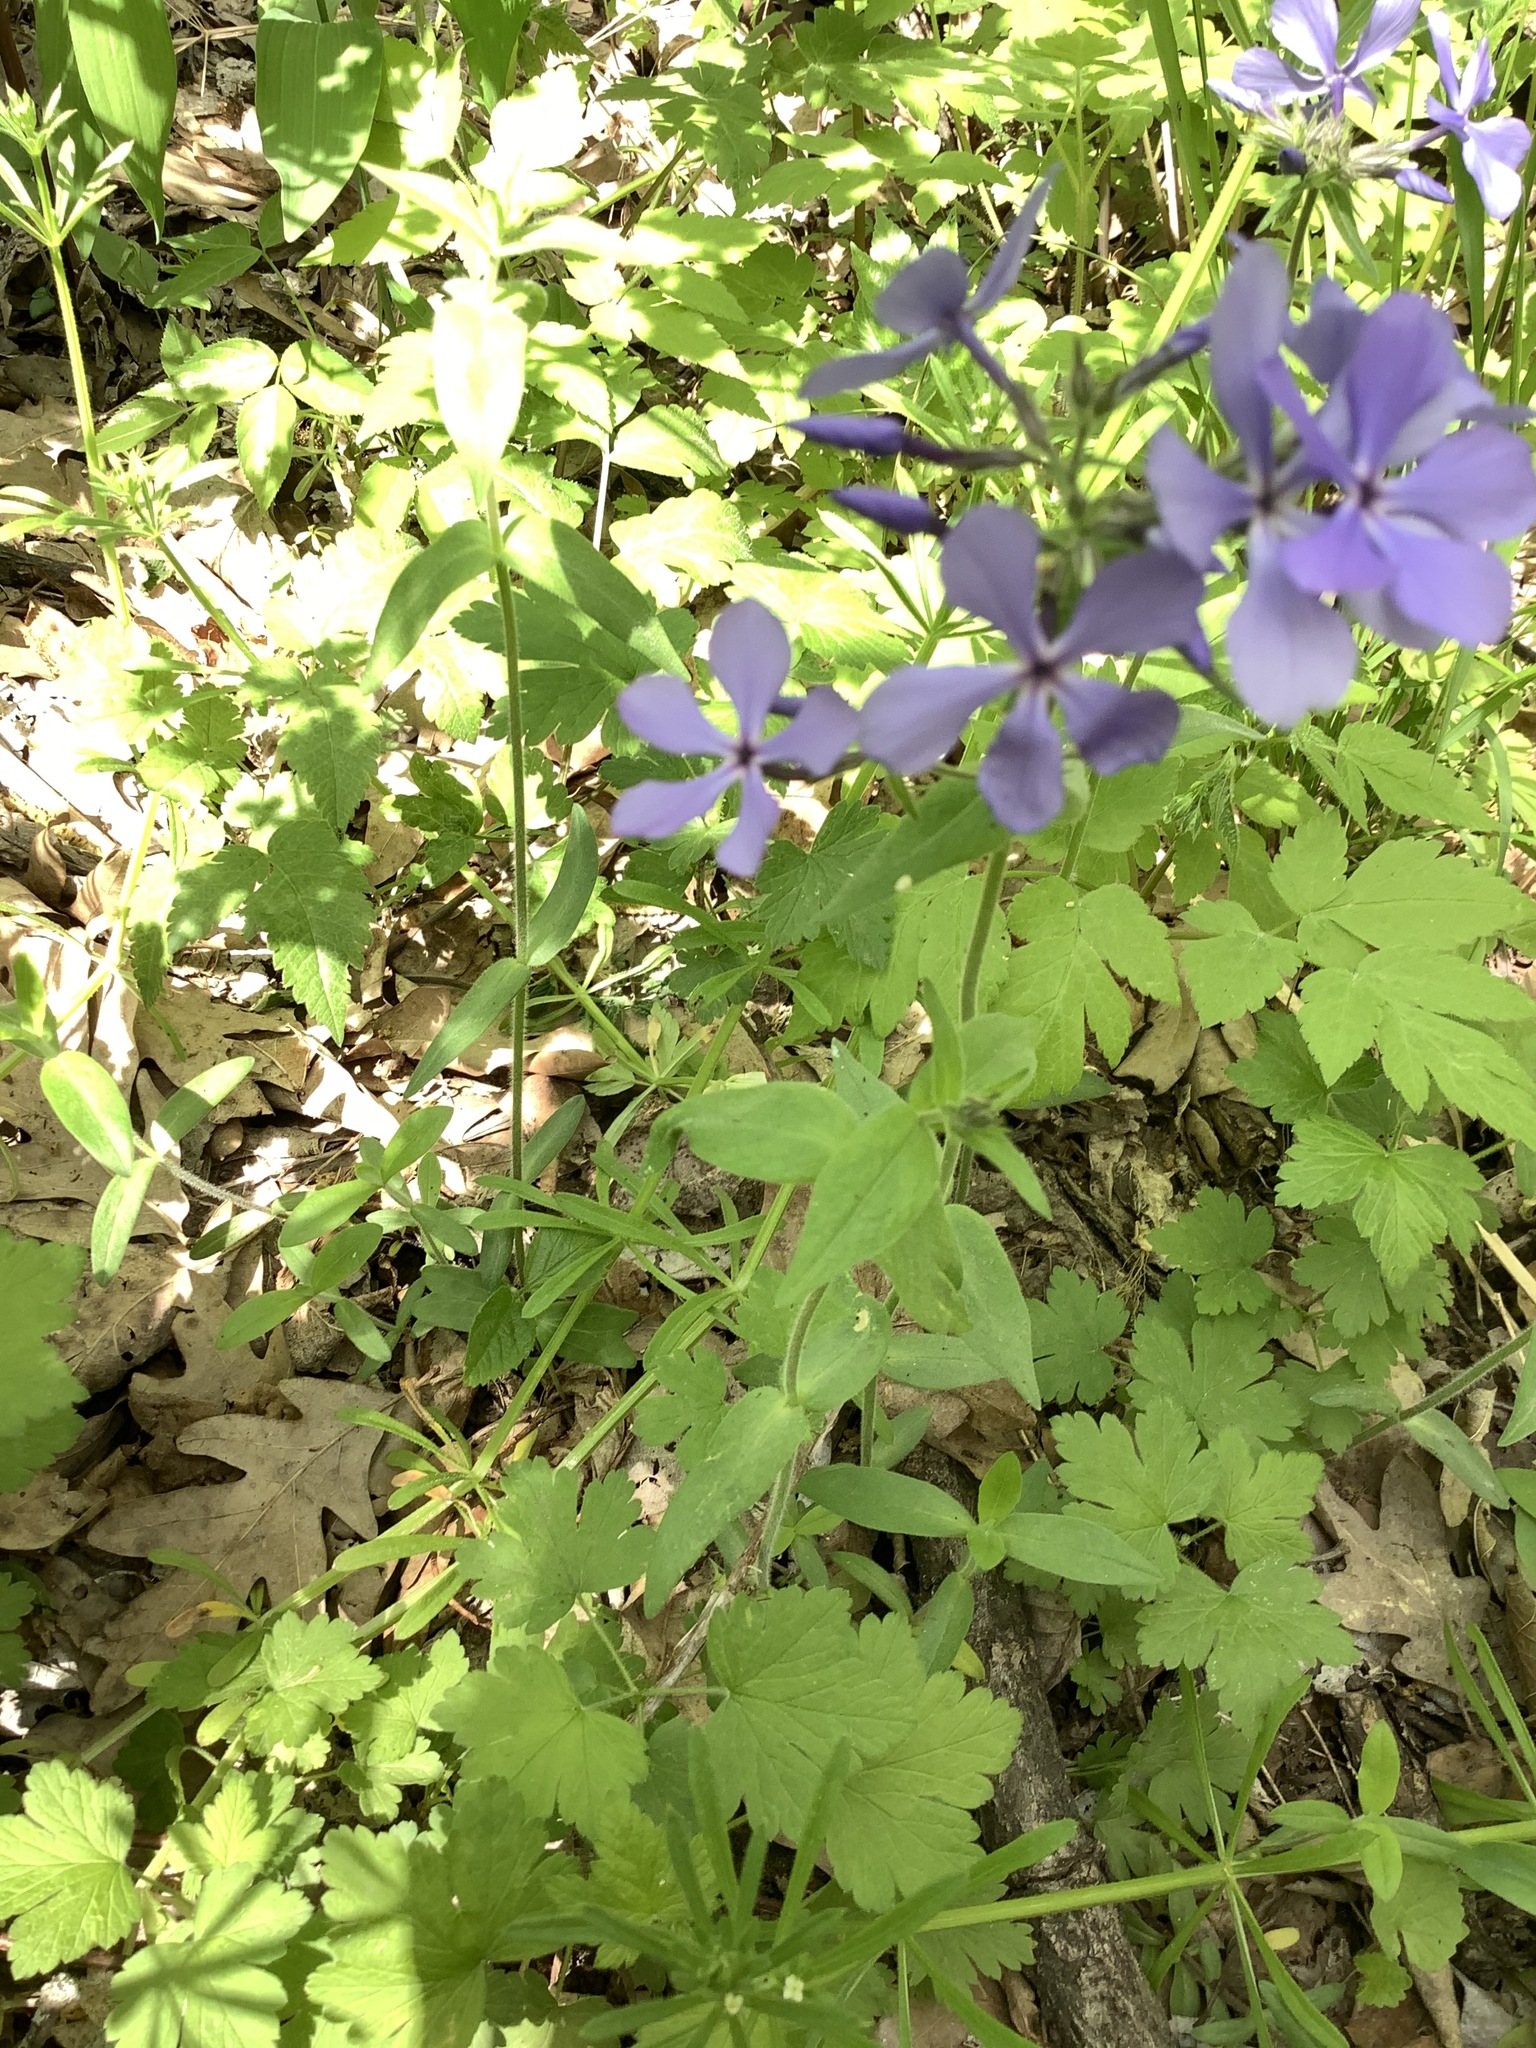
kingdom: Plantae
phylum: Tracheophyta
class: Magnoliopsida
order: Ericales
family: Polemoniaceae
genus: Phlox
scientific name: Phlox divaricata
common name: Blue phlox
